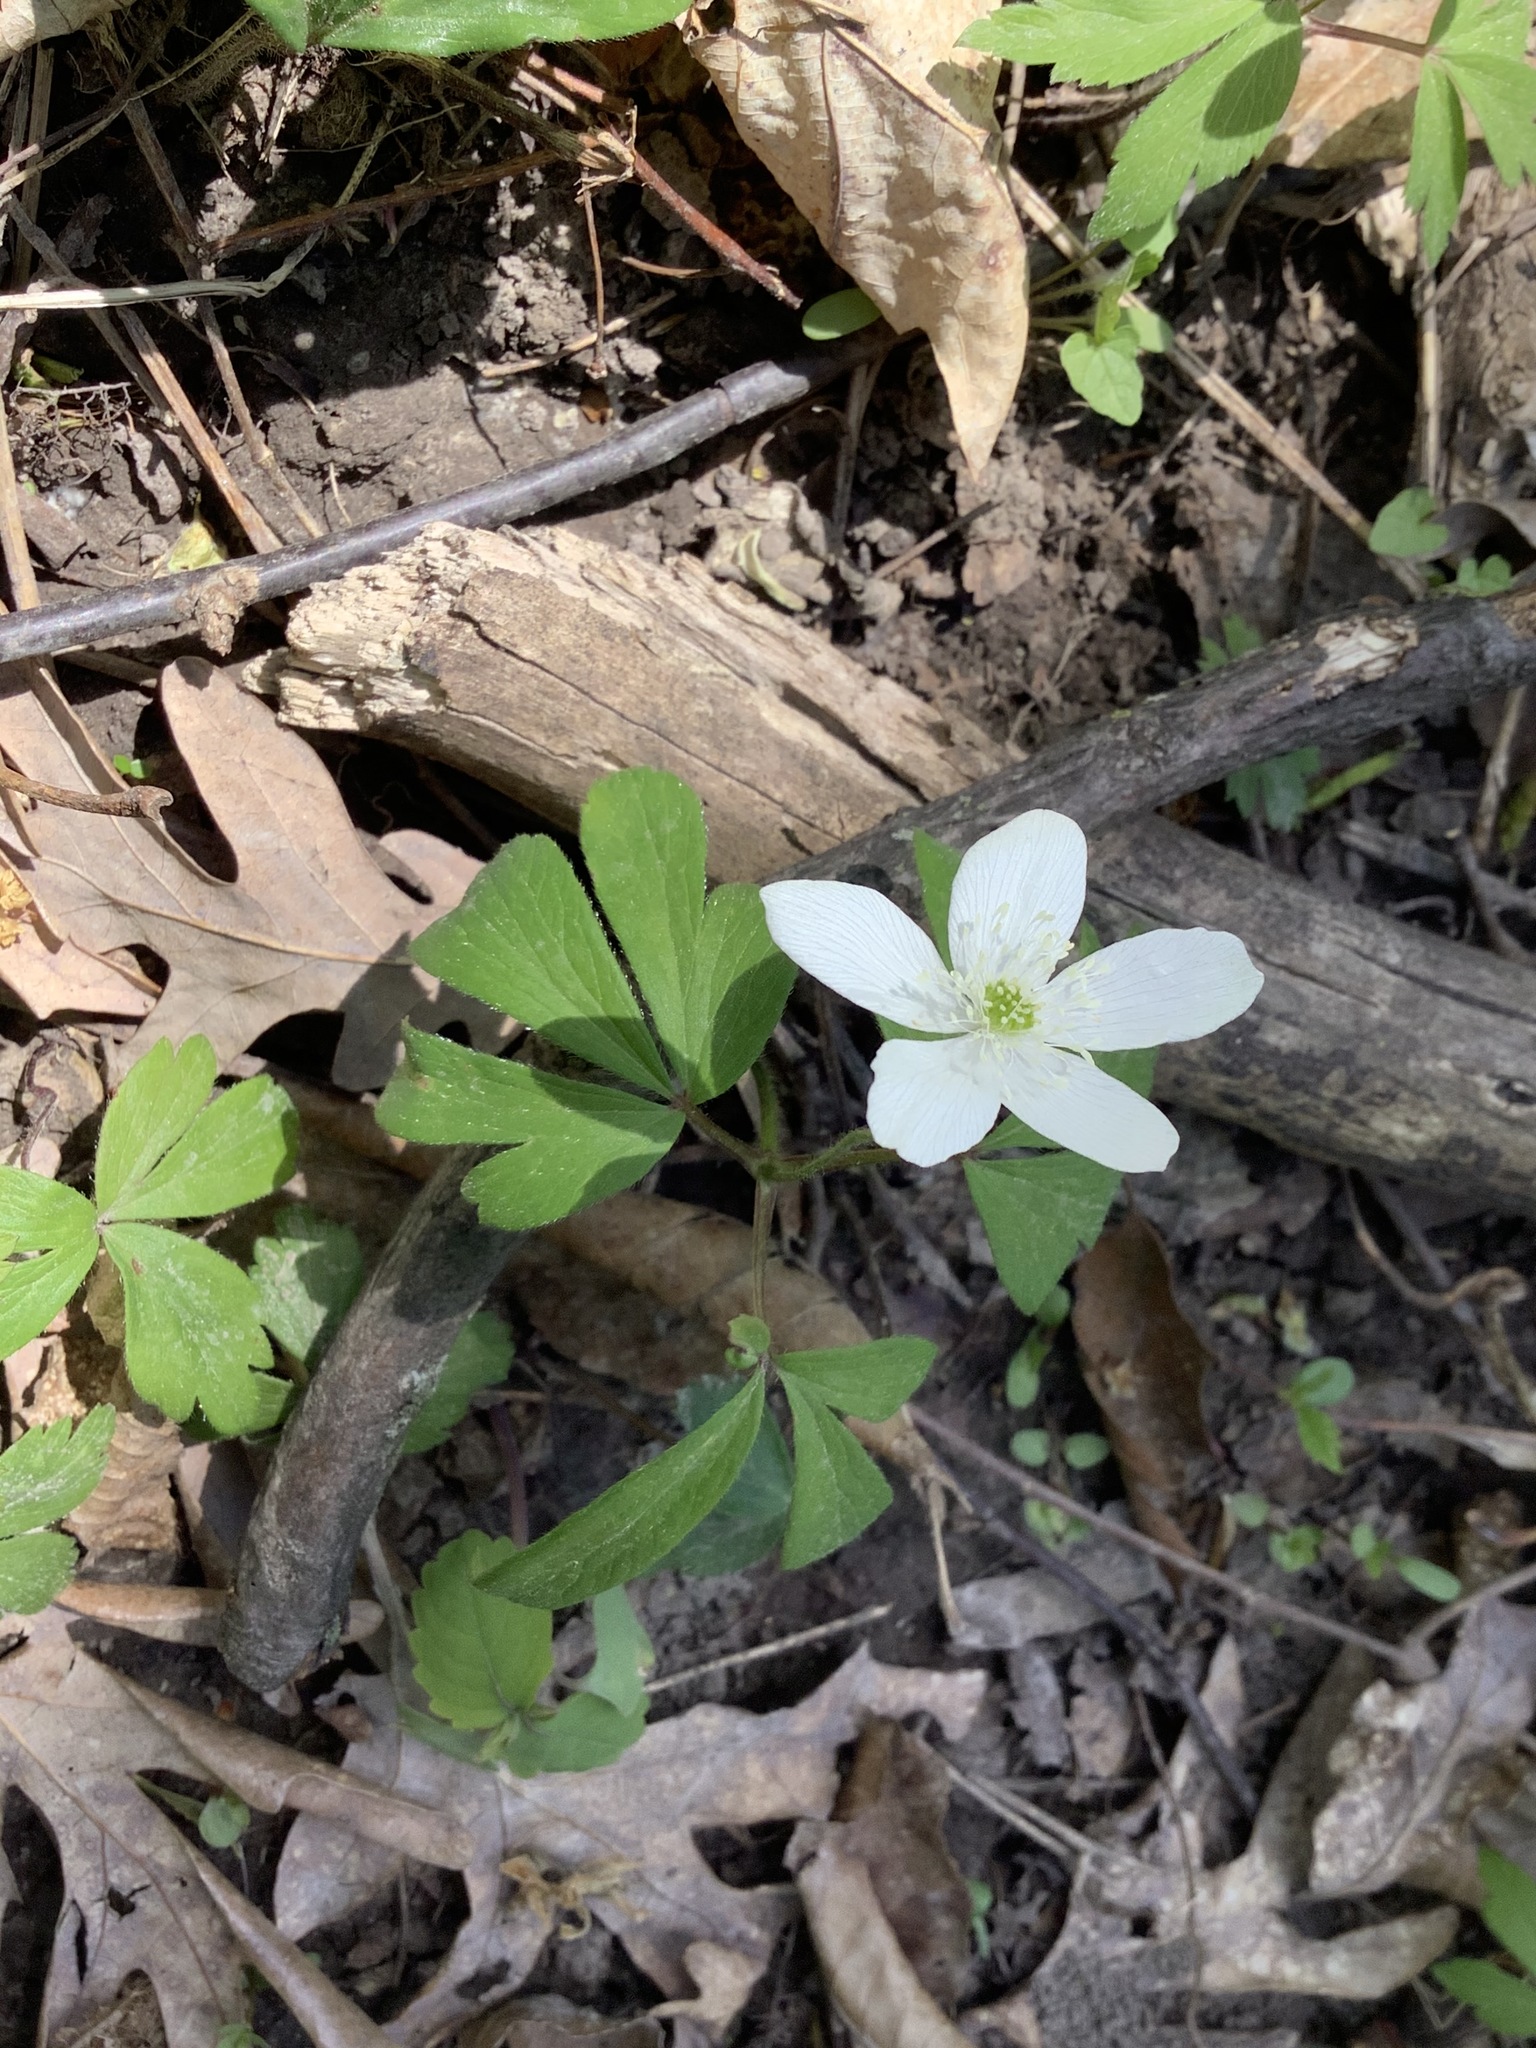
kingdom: Plantae
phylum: Tracheophyta
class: Magnoliopsida
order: Ranunculales
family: Ranunculaceae
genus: Anemone
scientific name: Anemone quinquefolia
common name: Wood anemone
